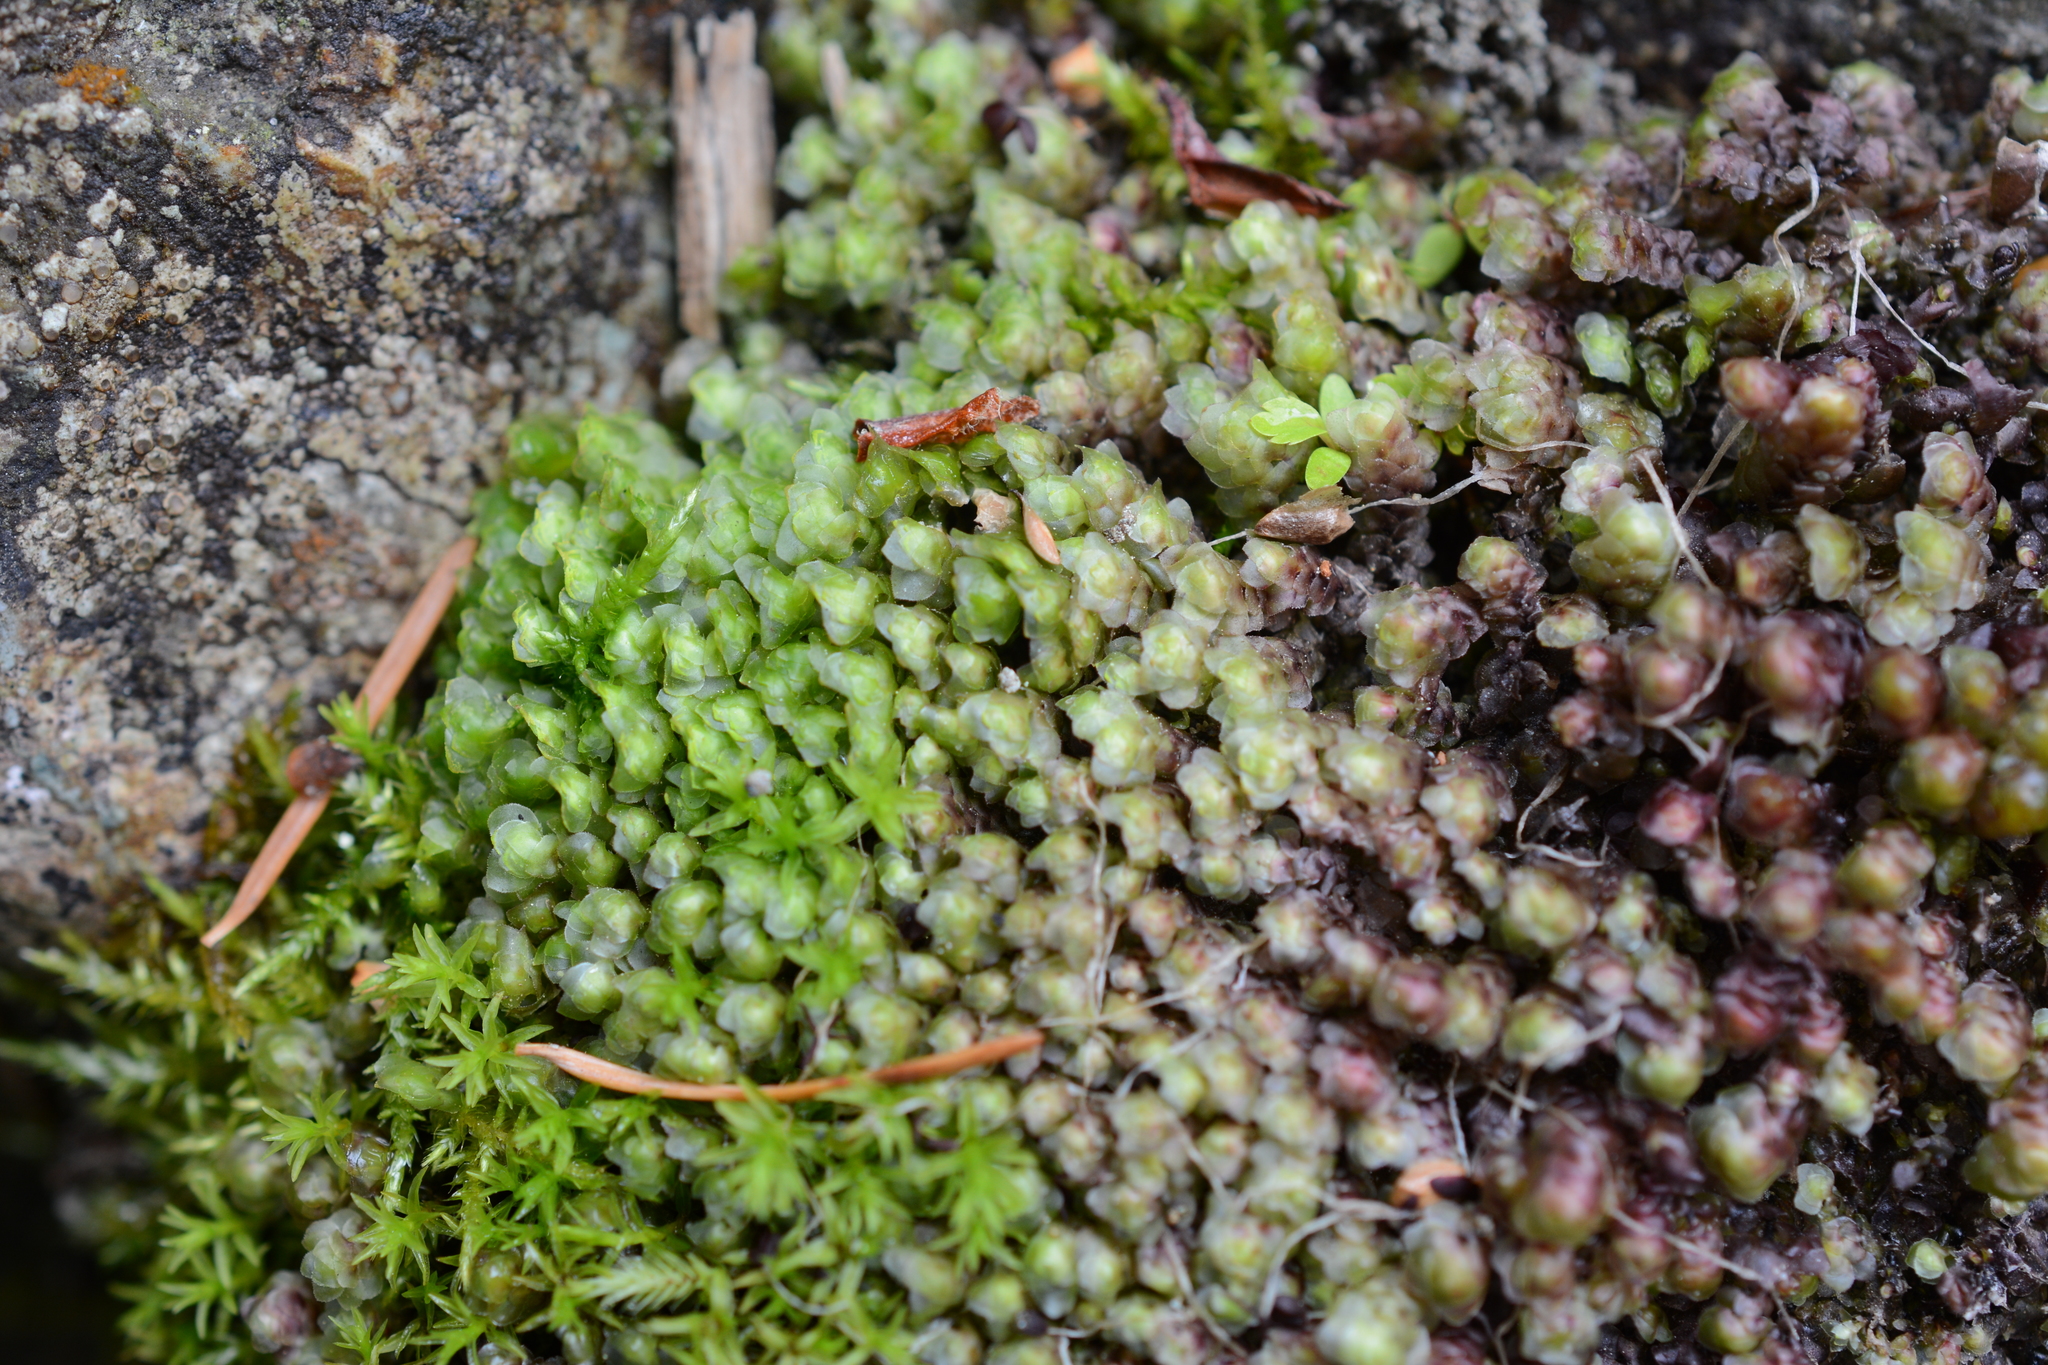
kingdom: Plantae
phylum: Marchantiophyta
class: Jungermanniopsida
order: Jungermanniales
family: Scapaniaceae
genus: Scapania
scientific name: Scapania americana
